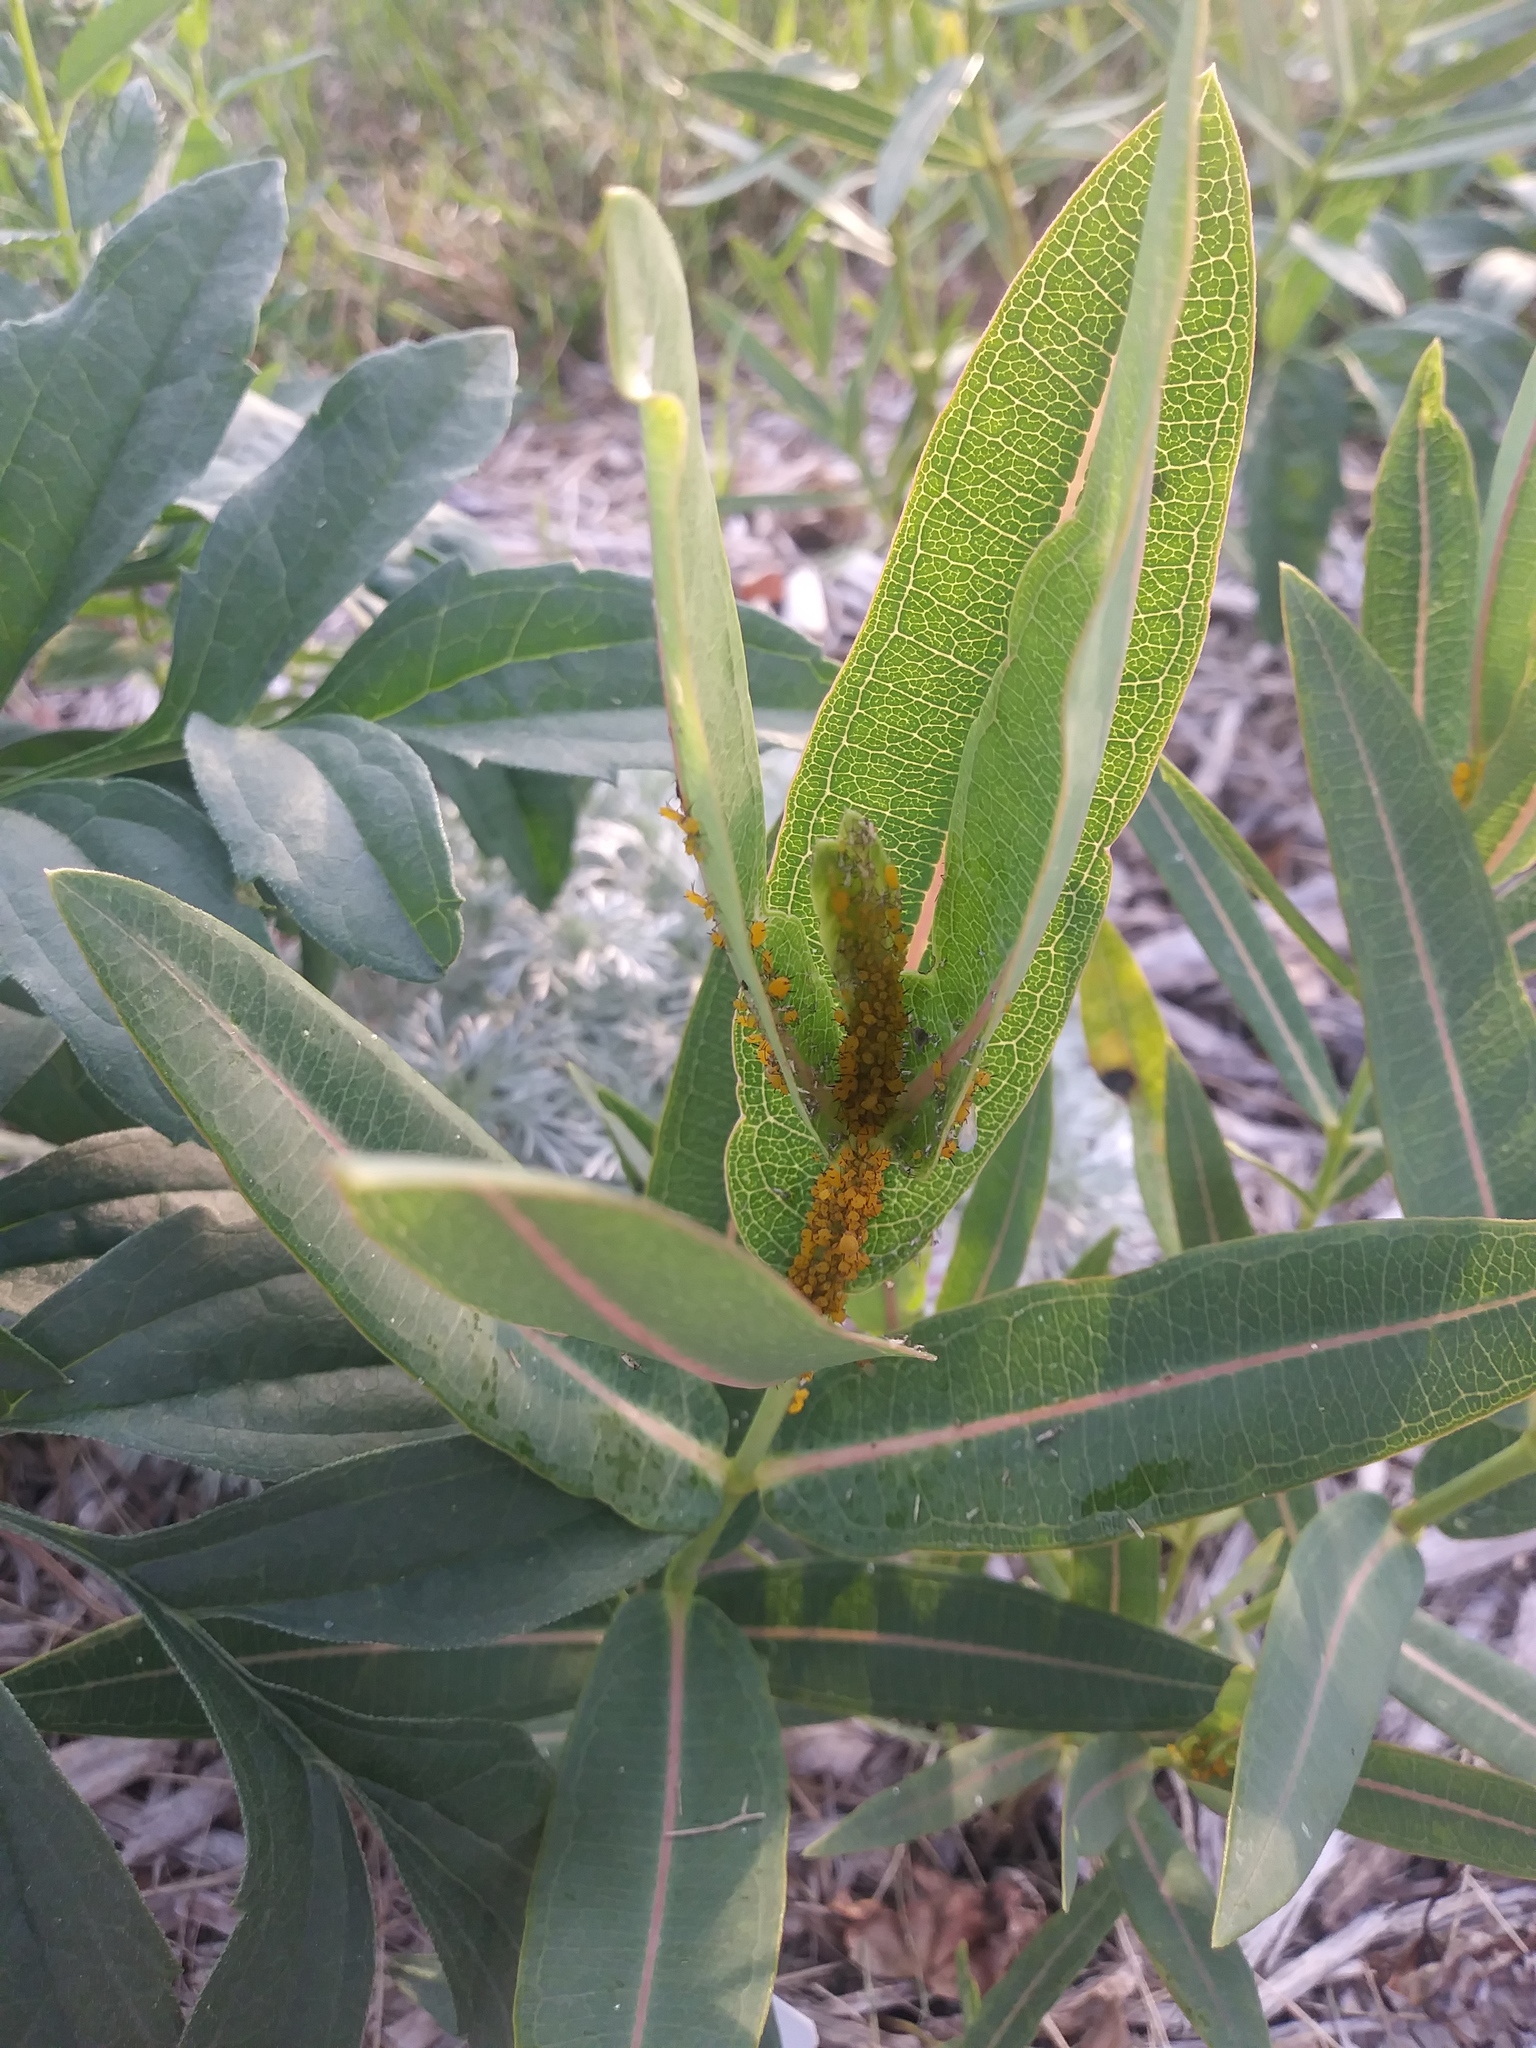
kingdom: Animalia
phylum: Arthropoda
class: Insecta
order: Hemiptera
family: Aphididae
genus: Aphis
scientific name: Aphis nerii
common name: Oleander aphid
